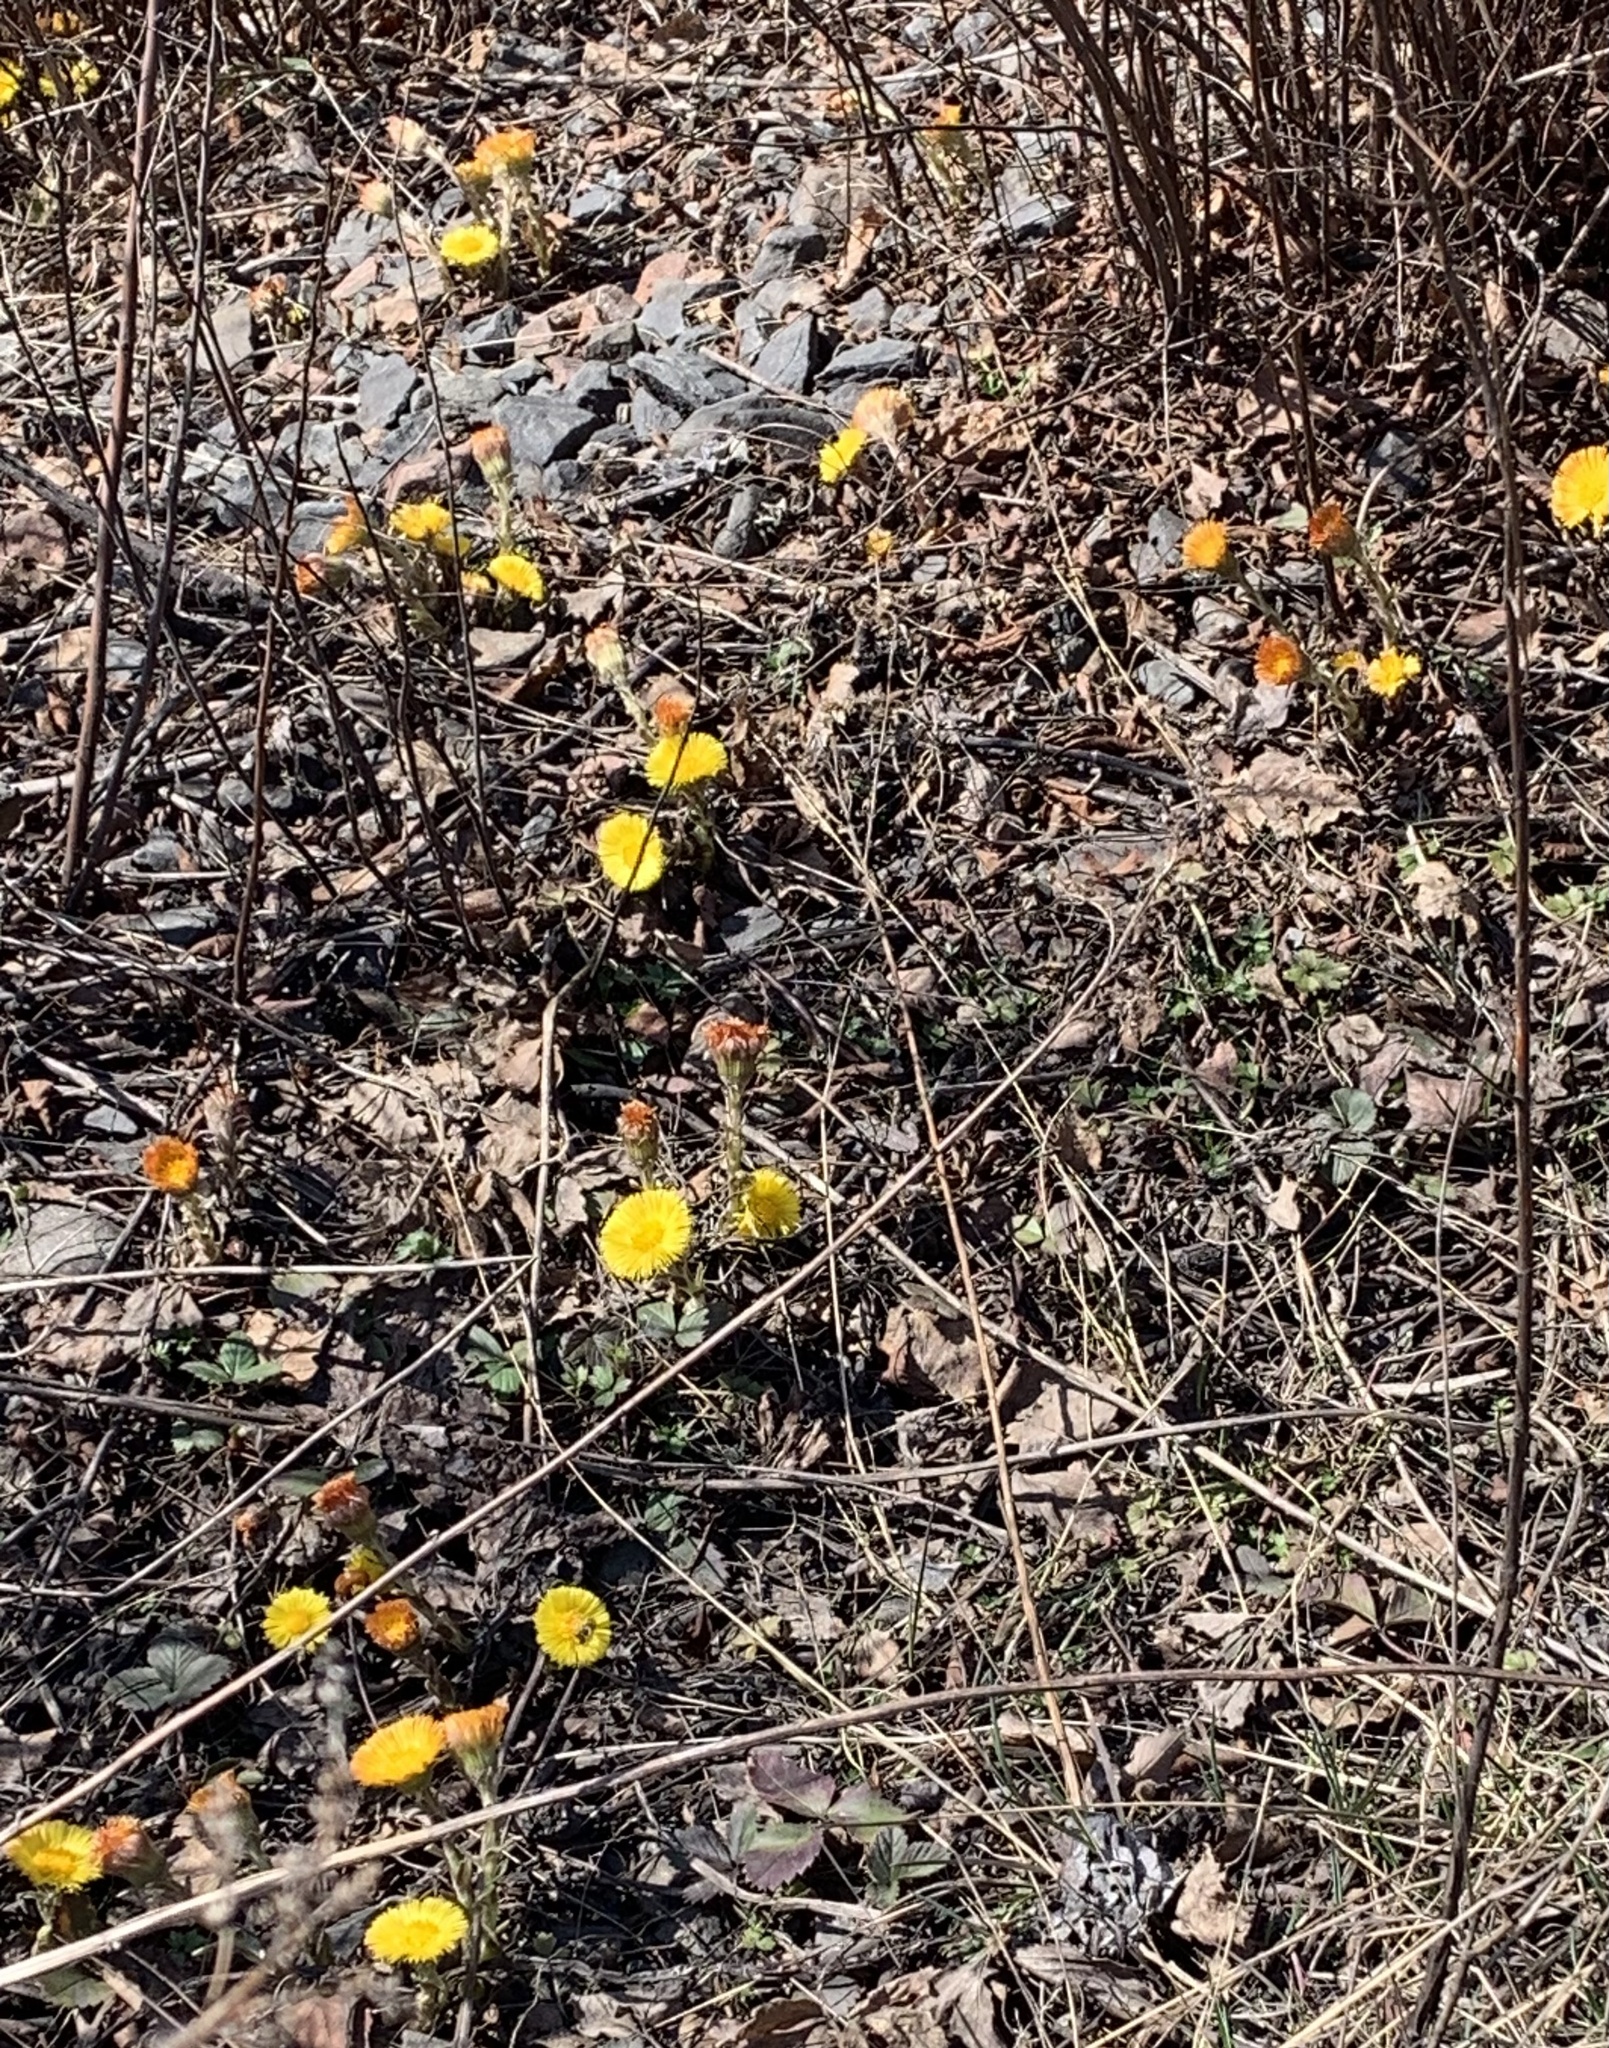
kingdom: Plantae
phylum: Tracheophyta
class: Magnoliopsida
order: Asterales
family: Asteraceae
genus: Tussilago
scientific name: Tussilago farfara
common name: Coltsfoot
